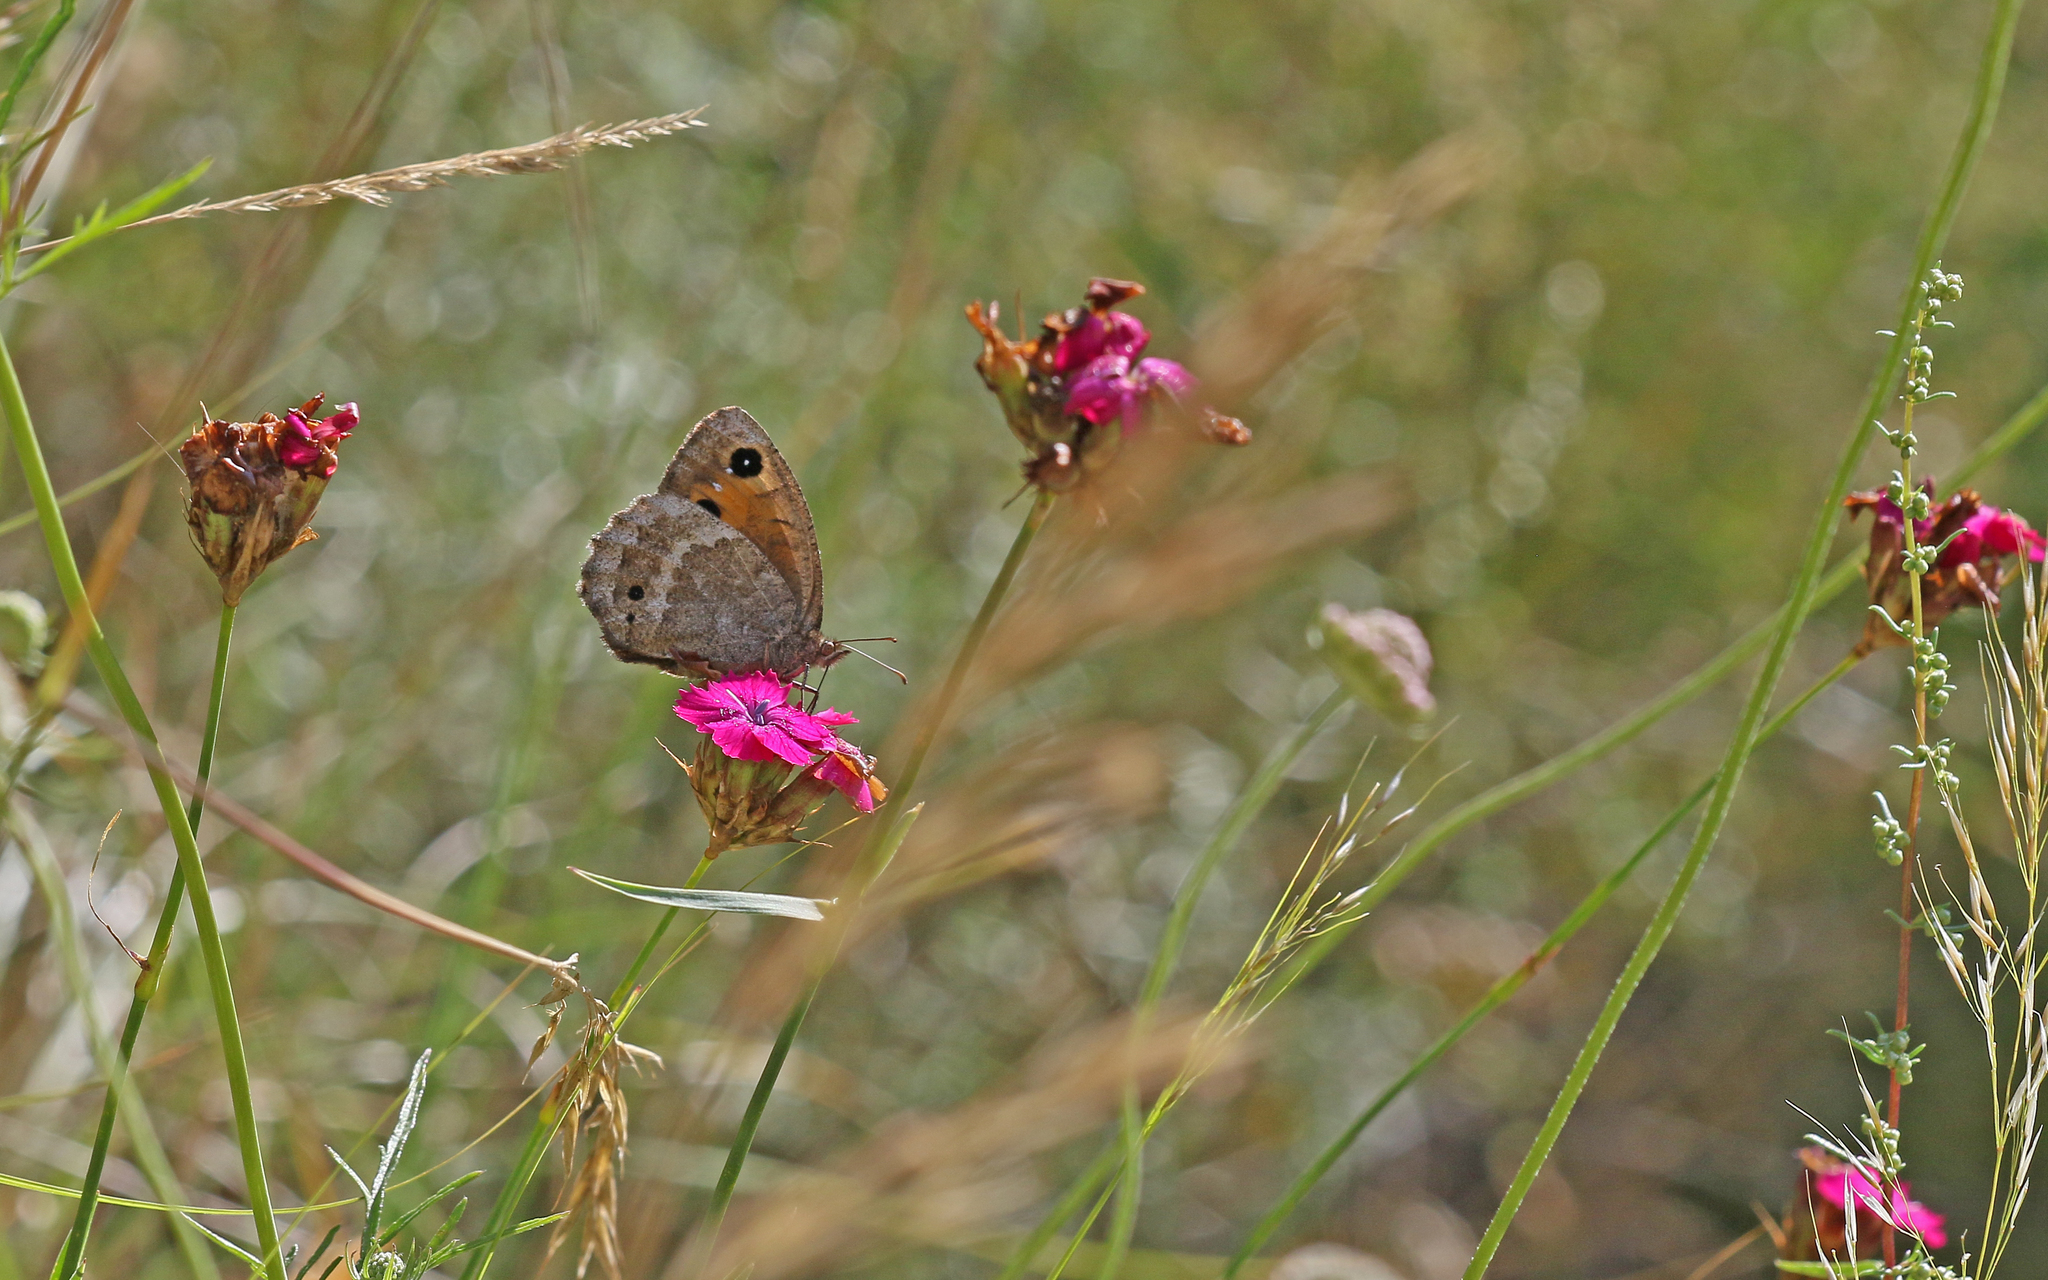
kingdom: Animalia
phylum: Arthropoda
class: Insecta
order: Lepidoptera
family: Nymphalidae
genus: Satyrus
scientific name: Satyrus ferula
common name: Great sooty satyr
